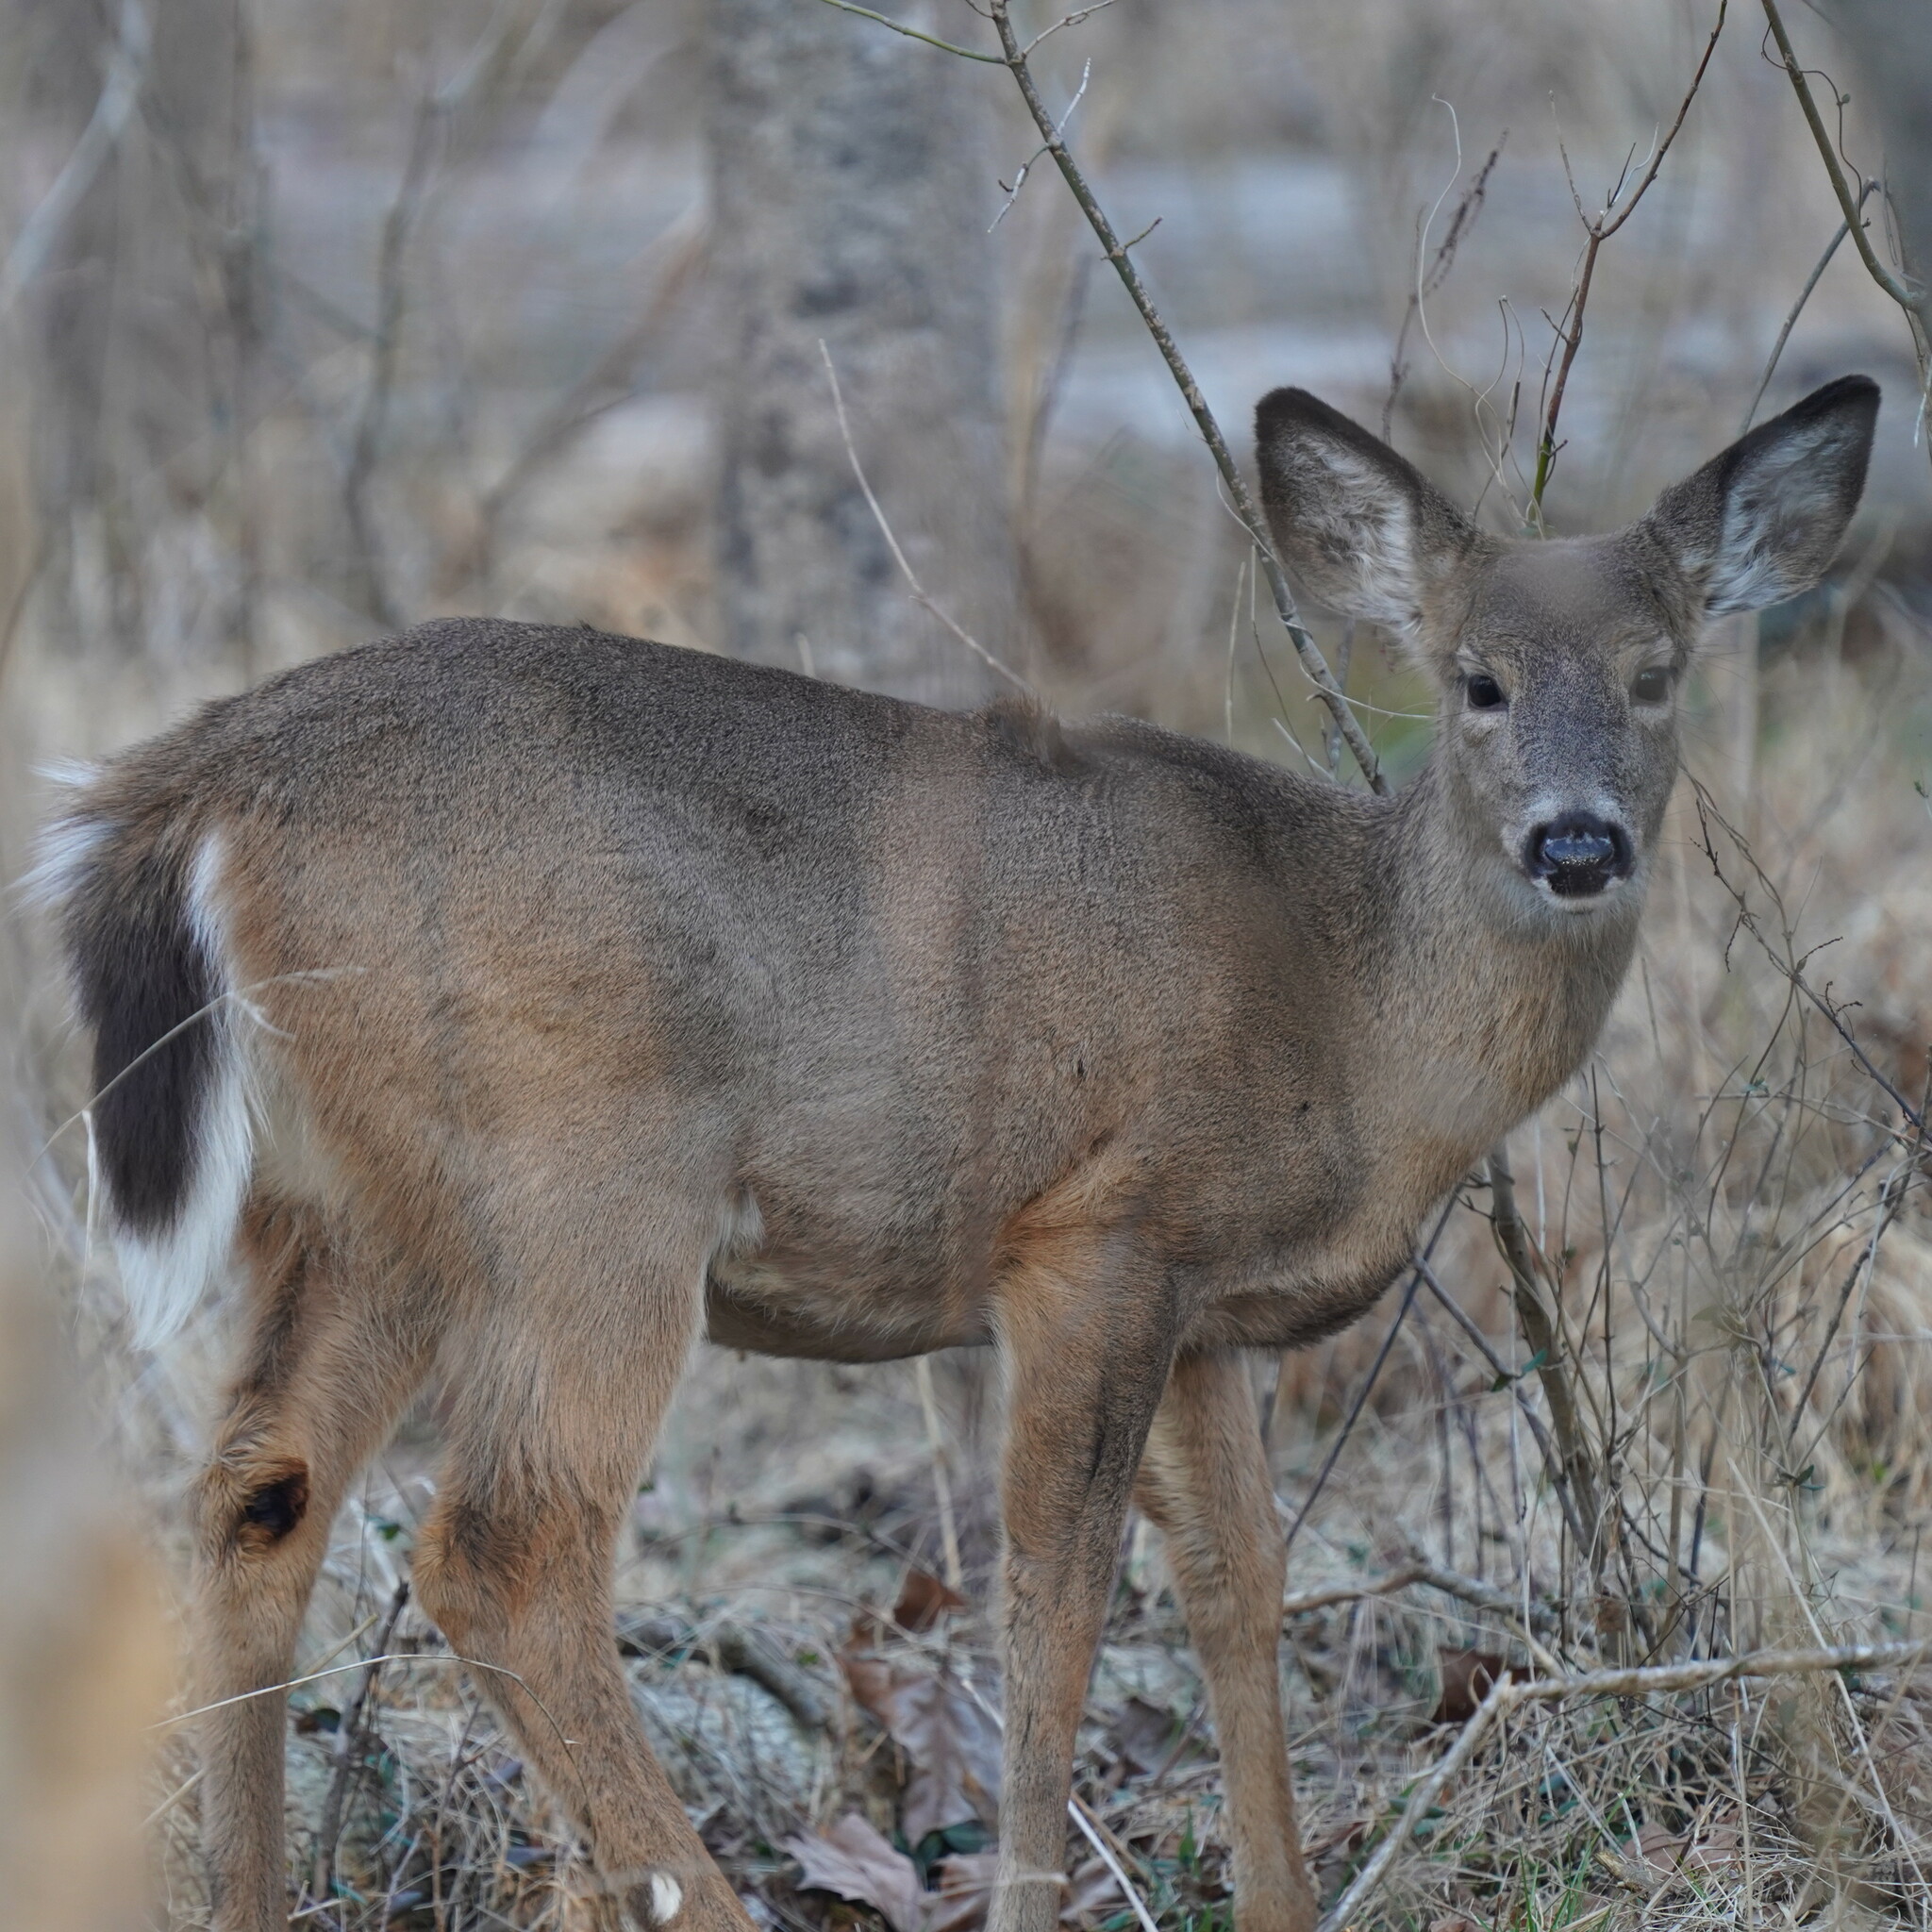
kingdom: Animalia
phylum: Chordata
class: Mammalia
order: Artiodactyla
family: Cervidae
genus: Odocoileus
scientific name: Odocoileus virginianus
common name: White-tailed deer
